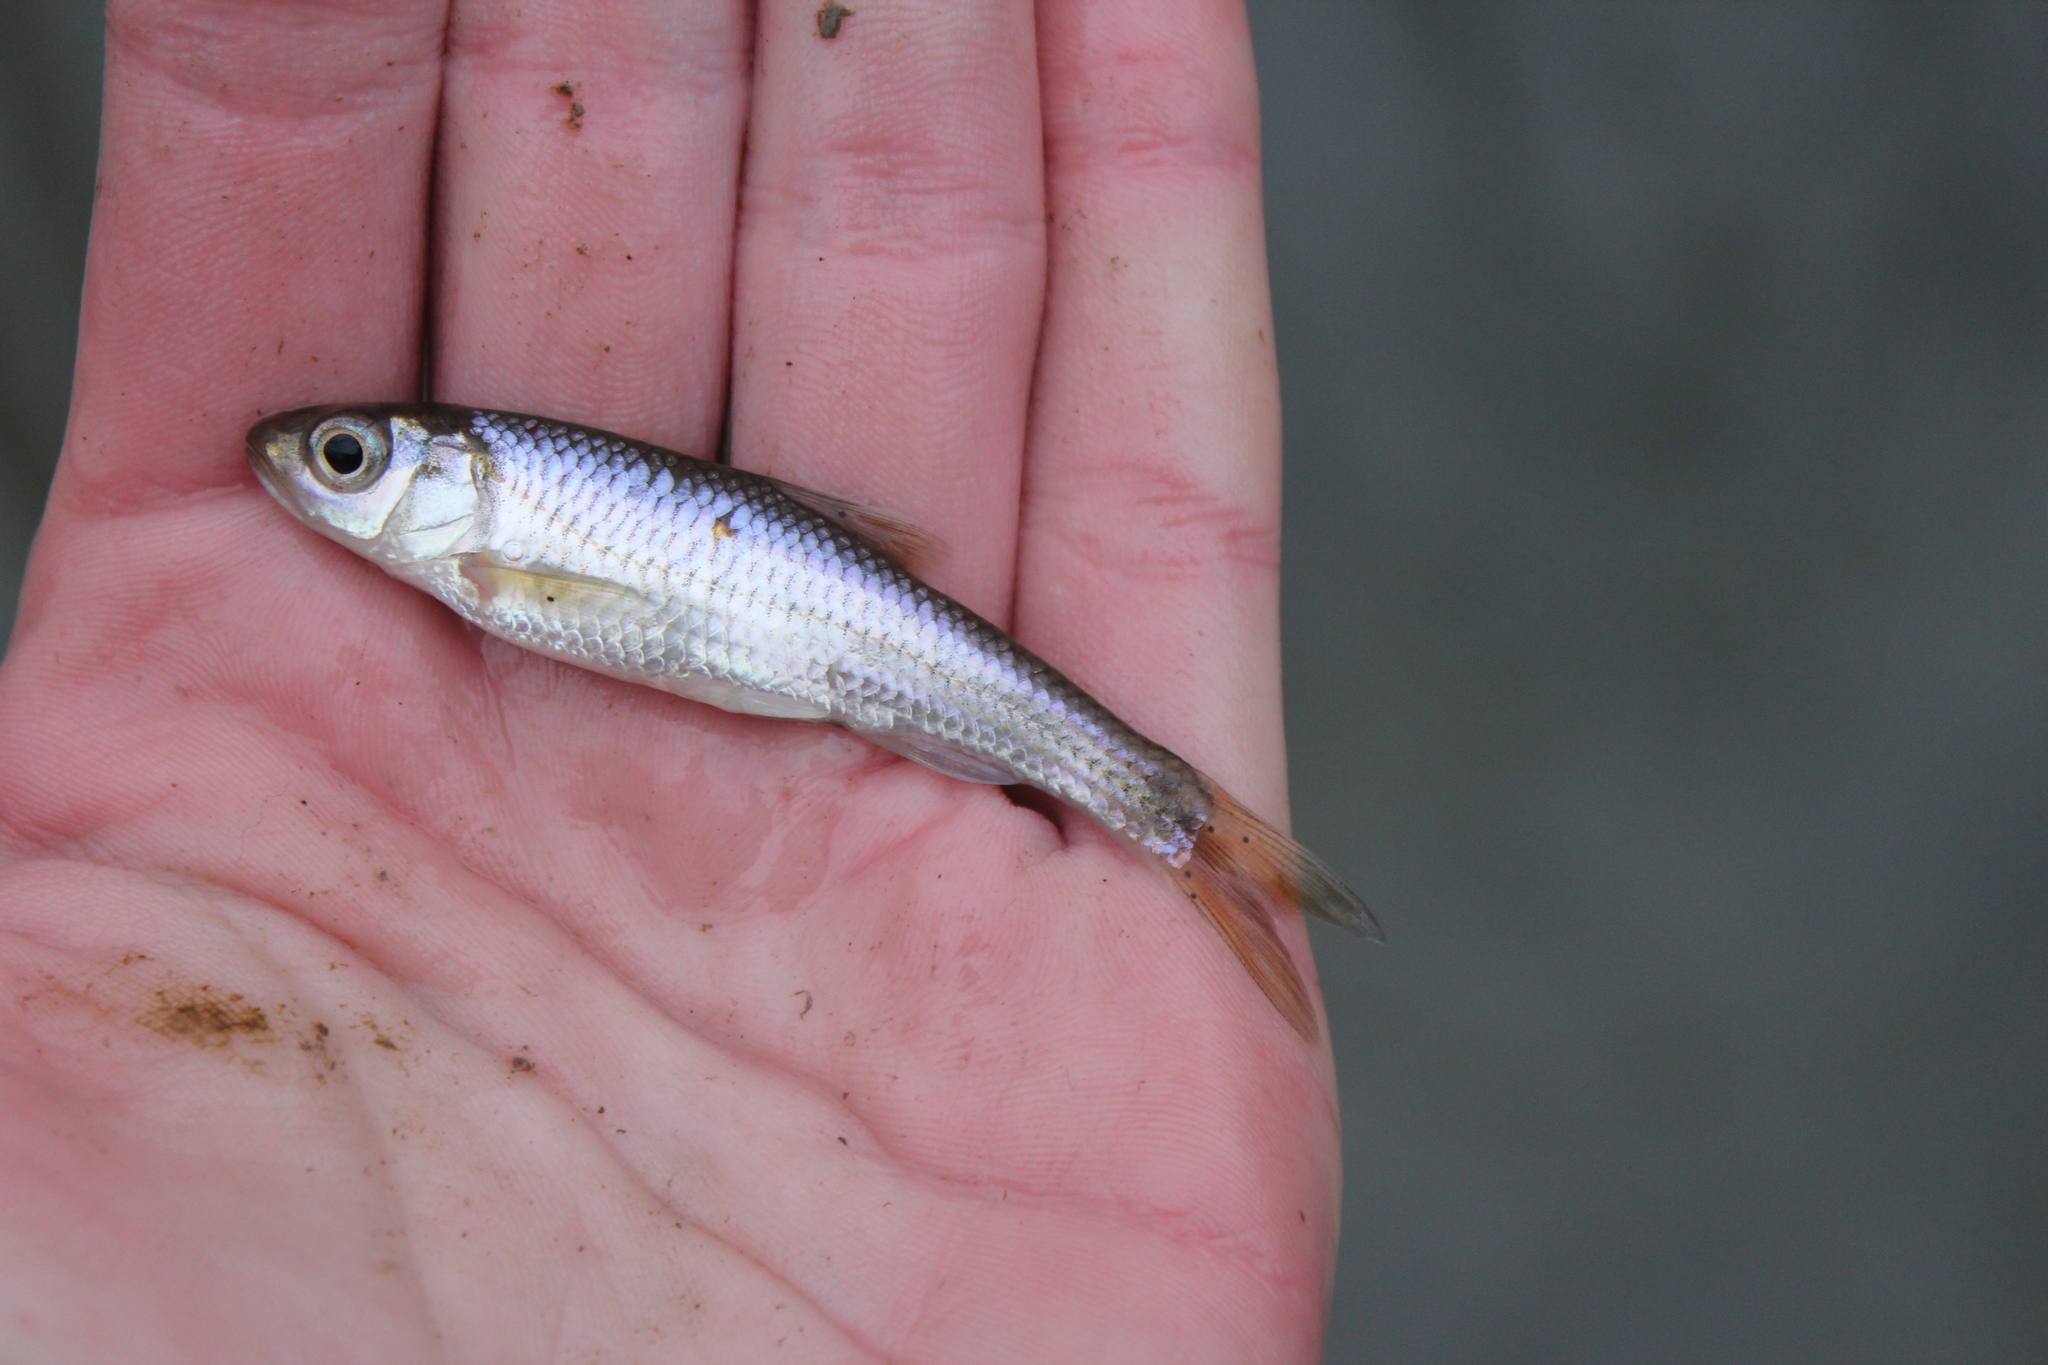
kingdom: Animalia
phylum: Chordata
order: Cypriniformes
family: Cyprinidae
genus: Luxilus
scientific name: Luxilus chrysocephalus
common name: Striped shiner
